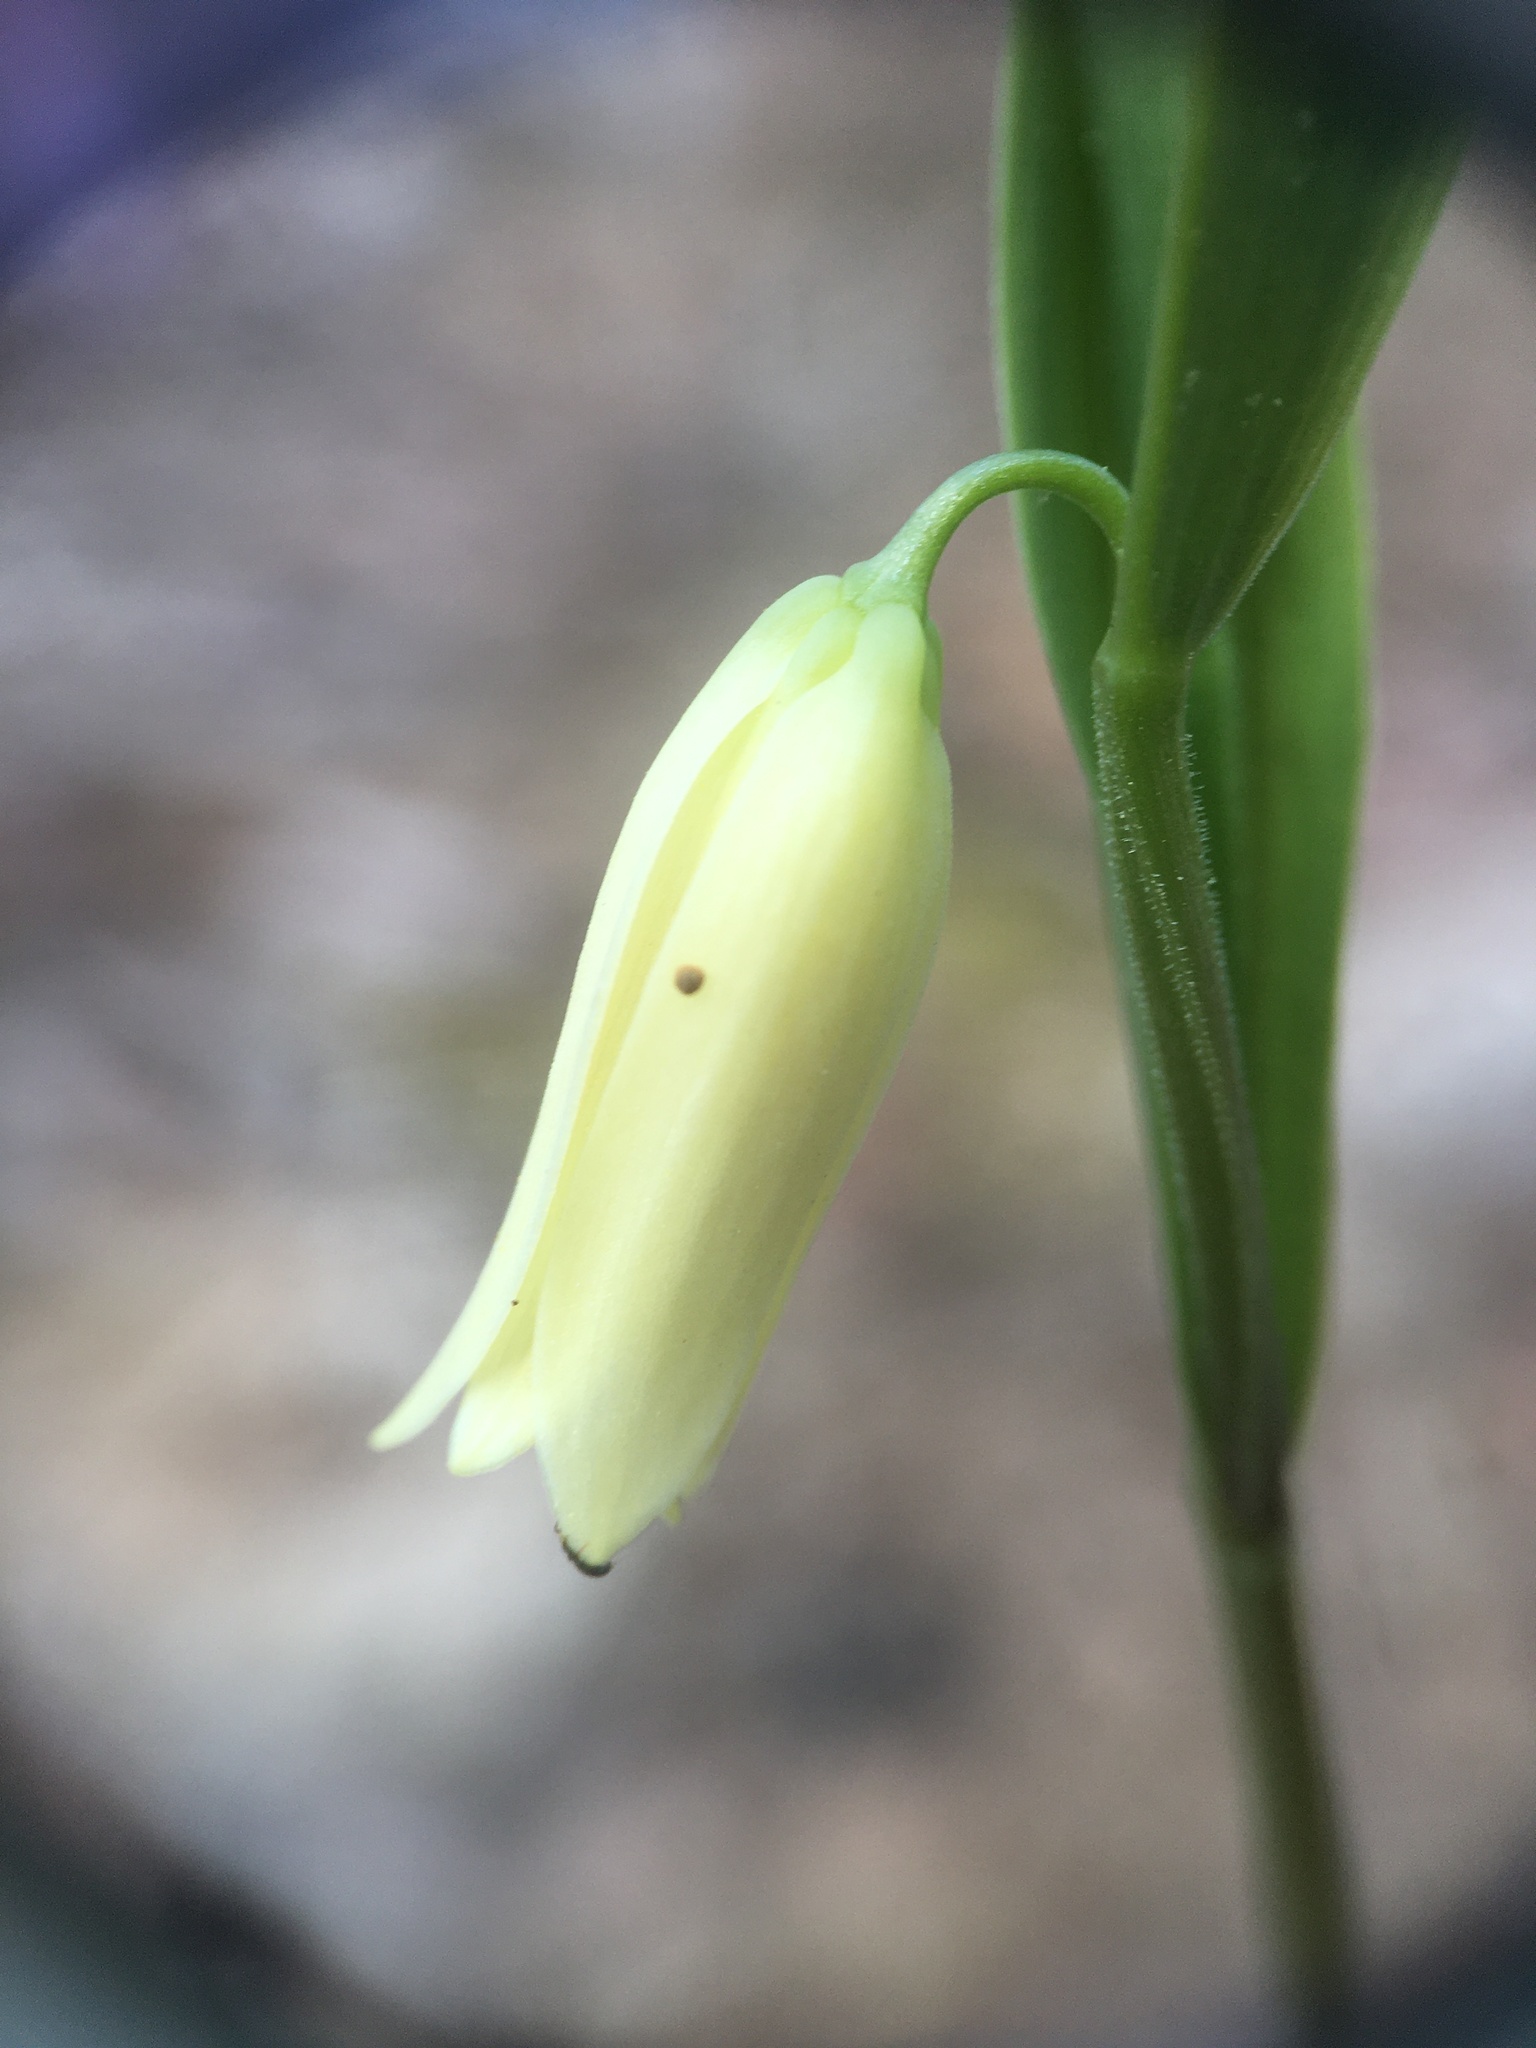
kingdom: Plantae
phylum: Tracheophyta
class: Liliopsida
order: Liliales
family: Colchicaceae
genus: Uvularia
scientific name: Uvularia puberula
